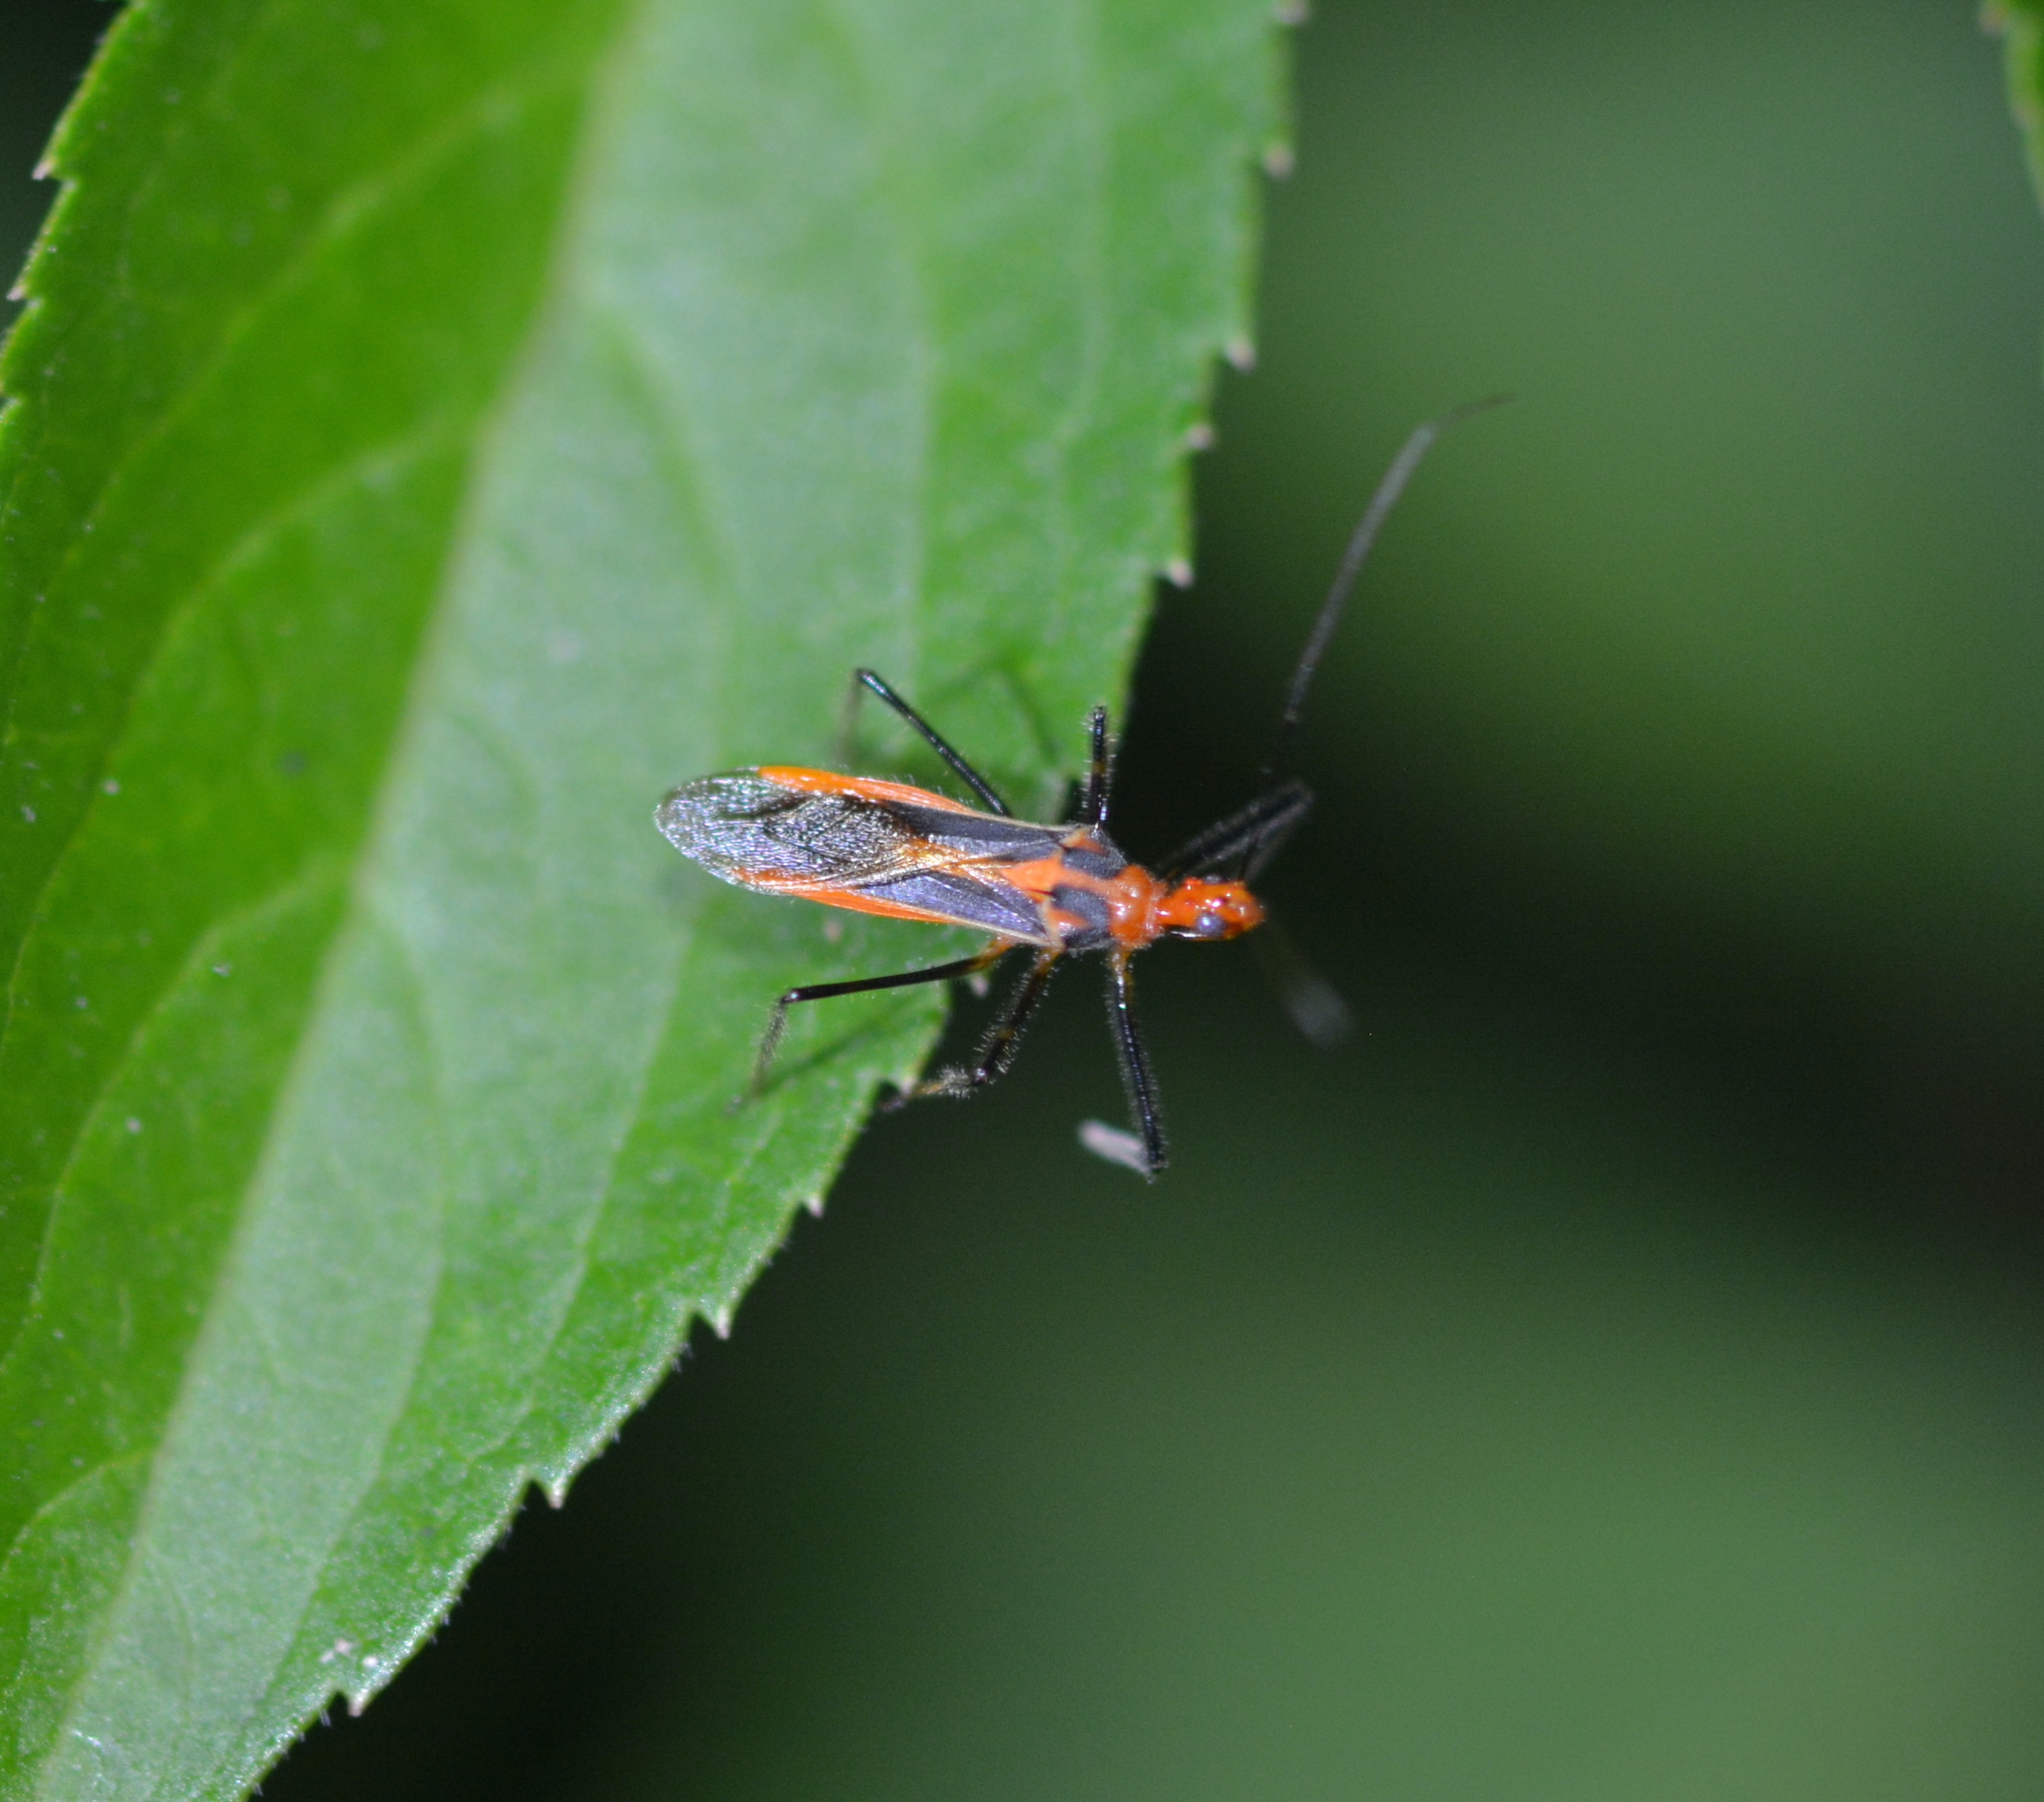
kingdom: Animalia
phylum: Arthropoda
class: Insecta
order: Hemiptera
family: Reduviidae
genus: Repipta
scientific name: Repipta taurus
